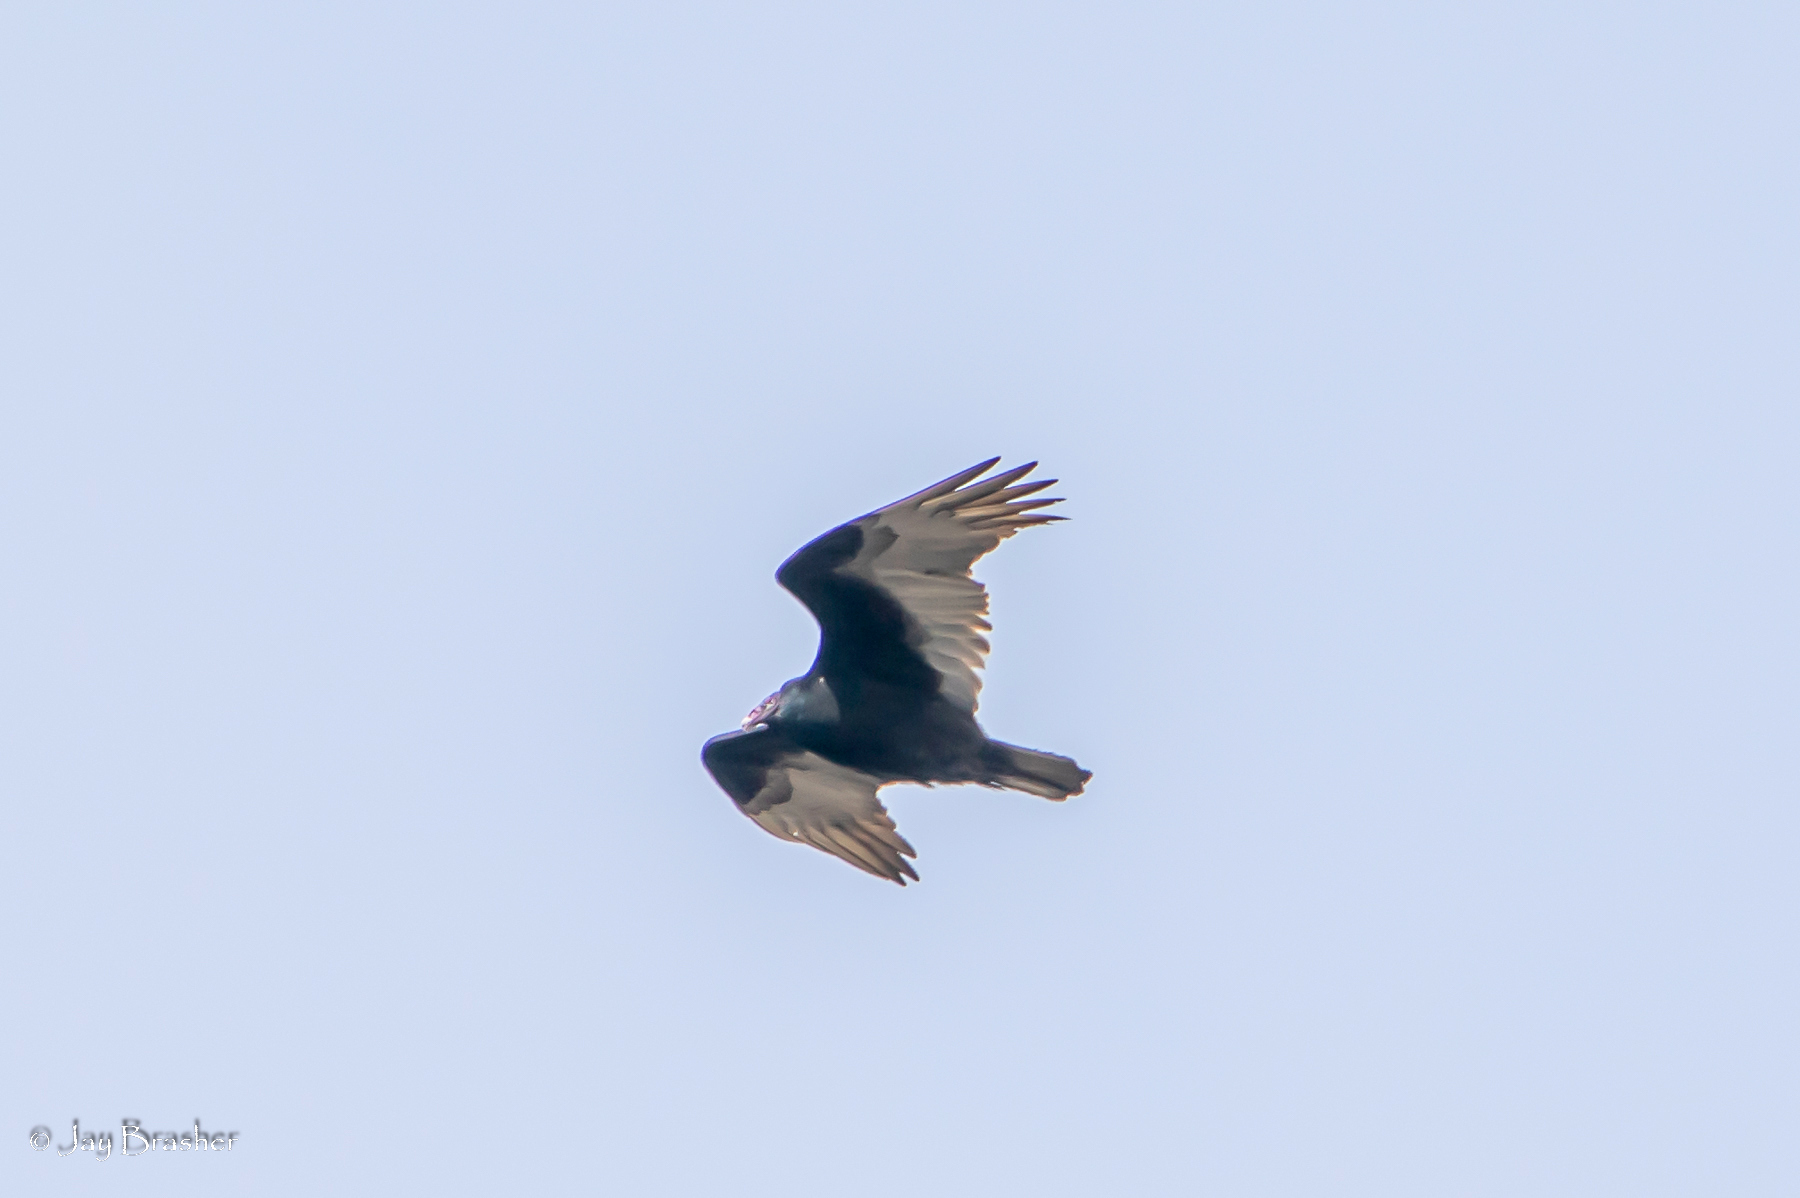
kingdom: Animalia
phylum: Chordata
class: Aves
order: Accipitriformes
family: Cathartidae
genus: Cathartes
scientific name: Cathartes aura
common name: Turkey vulture
